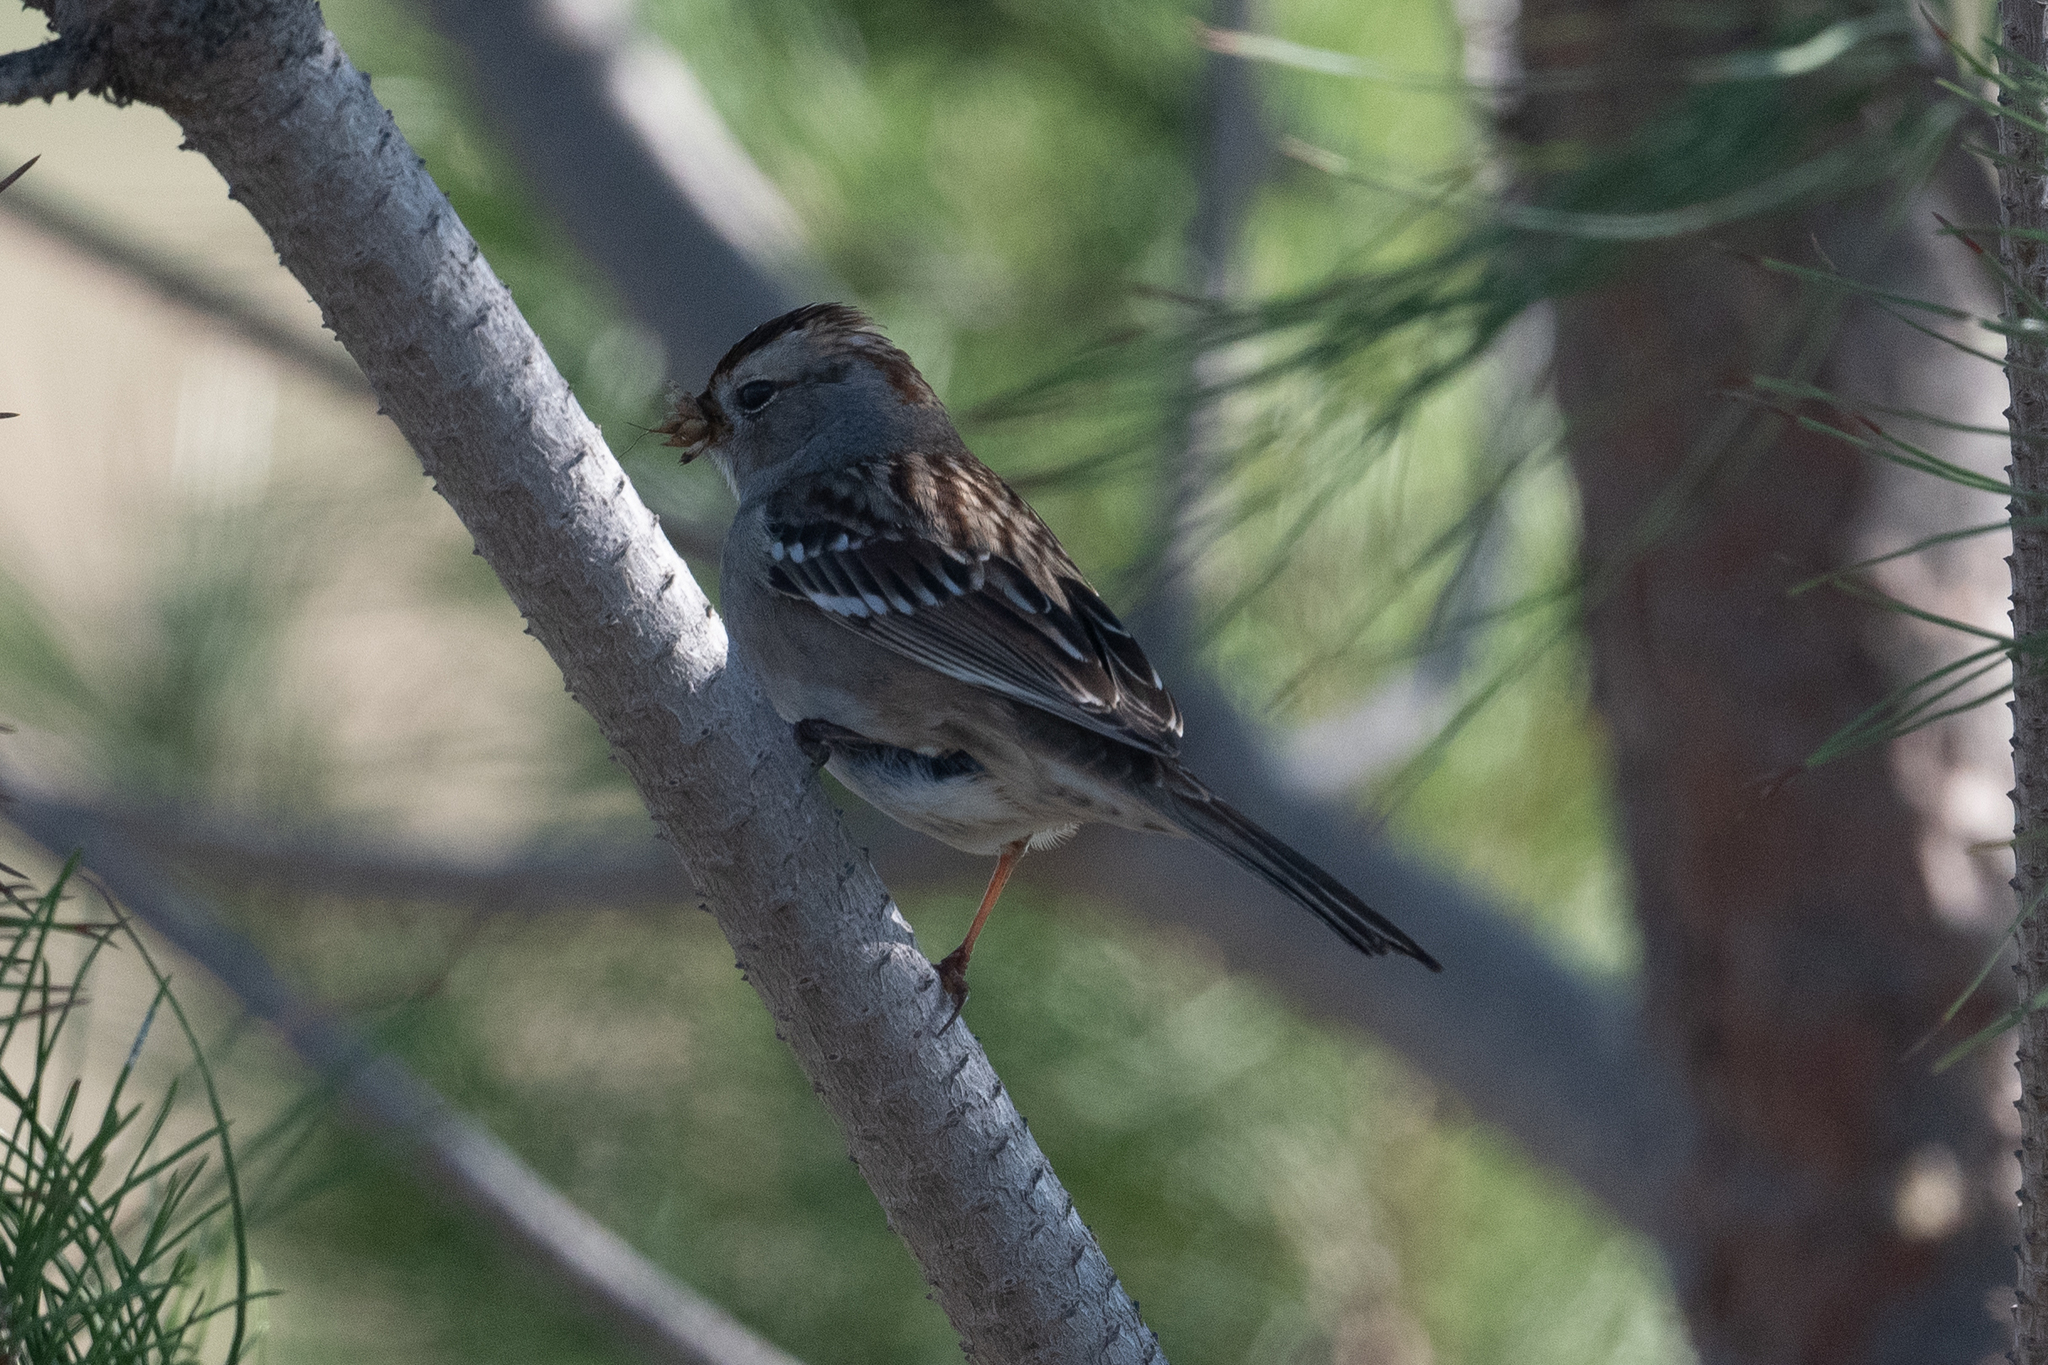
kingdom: Animalia
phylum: Chordata
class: Aves
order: Passeriformes
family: Passerellidae
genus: Zonotrichia
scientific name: Zonotrichia leucophrys
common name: White-crowned sparrow
